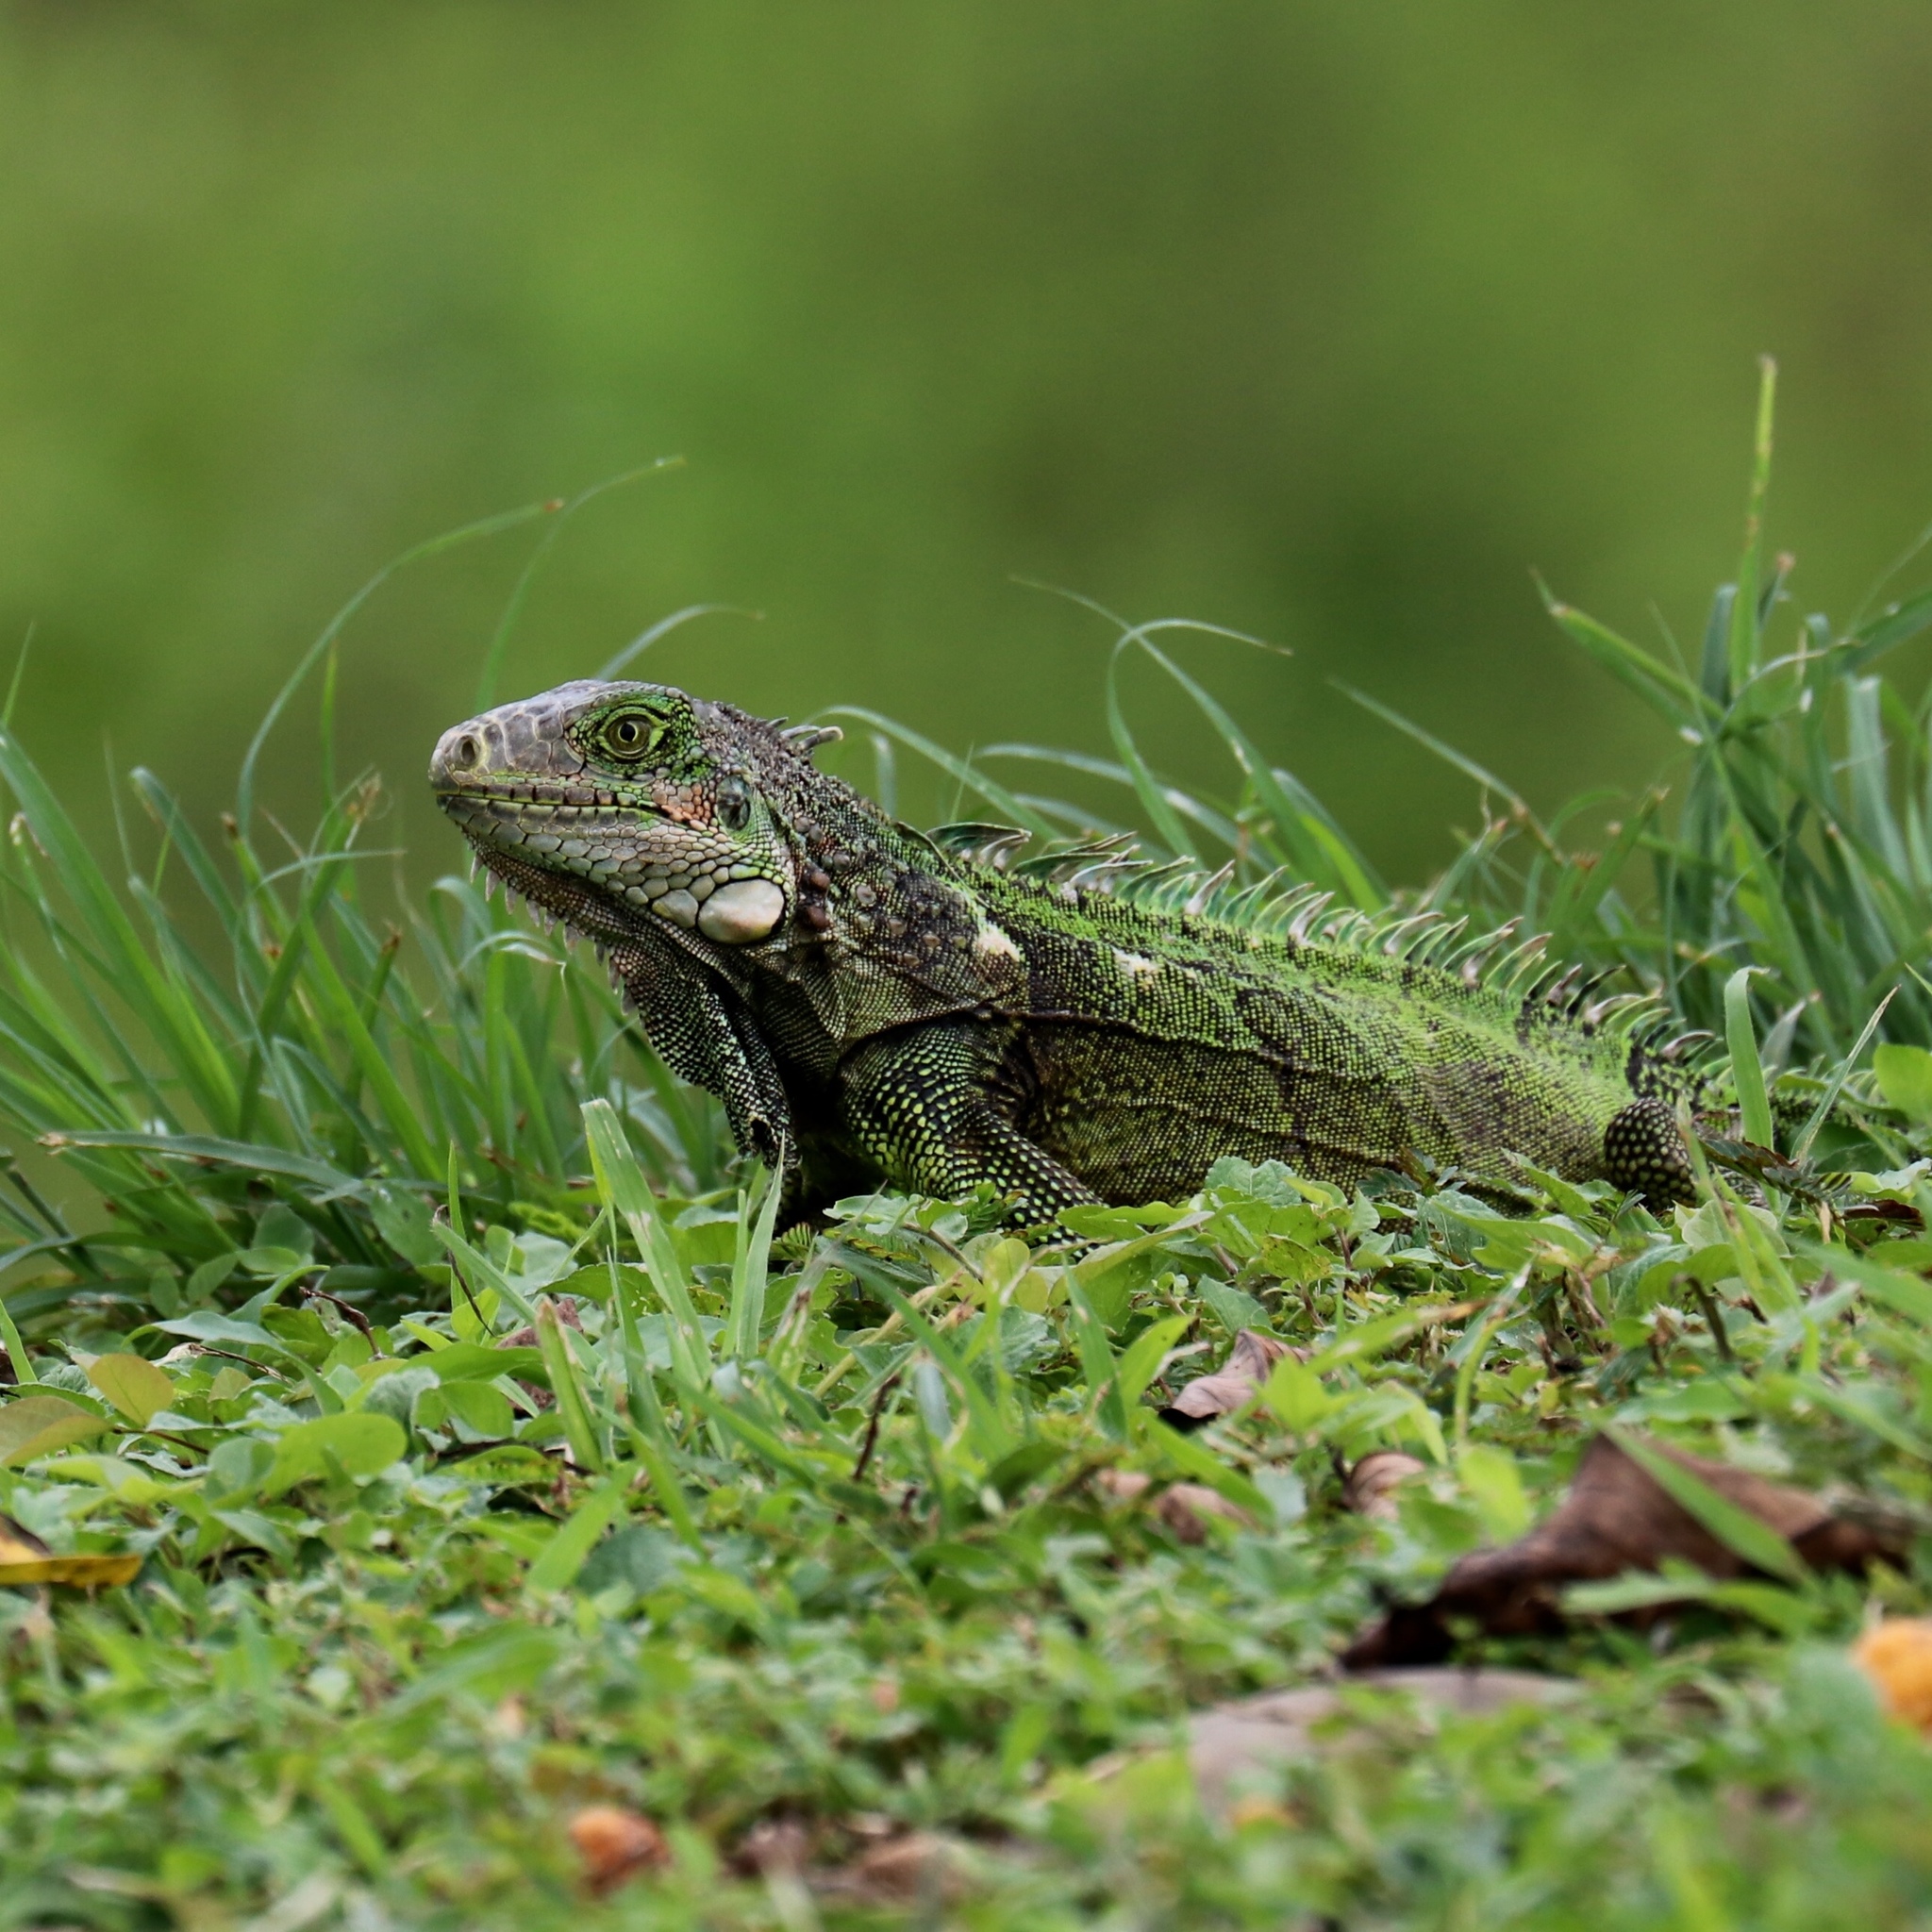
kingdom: Animalia
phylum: Chordata
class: Squamata
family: Iguanidae
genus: Iguana
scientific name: Iguana iguana
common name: Green iguana
